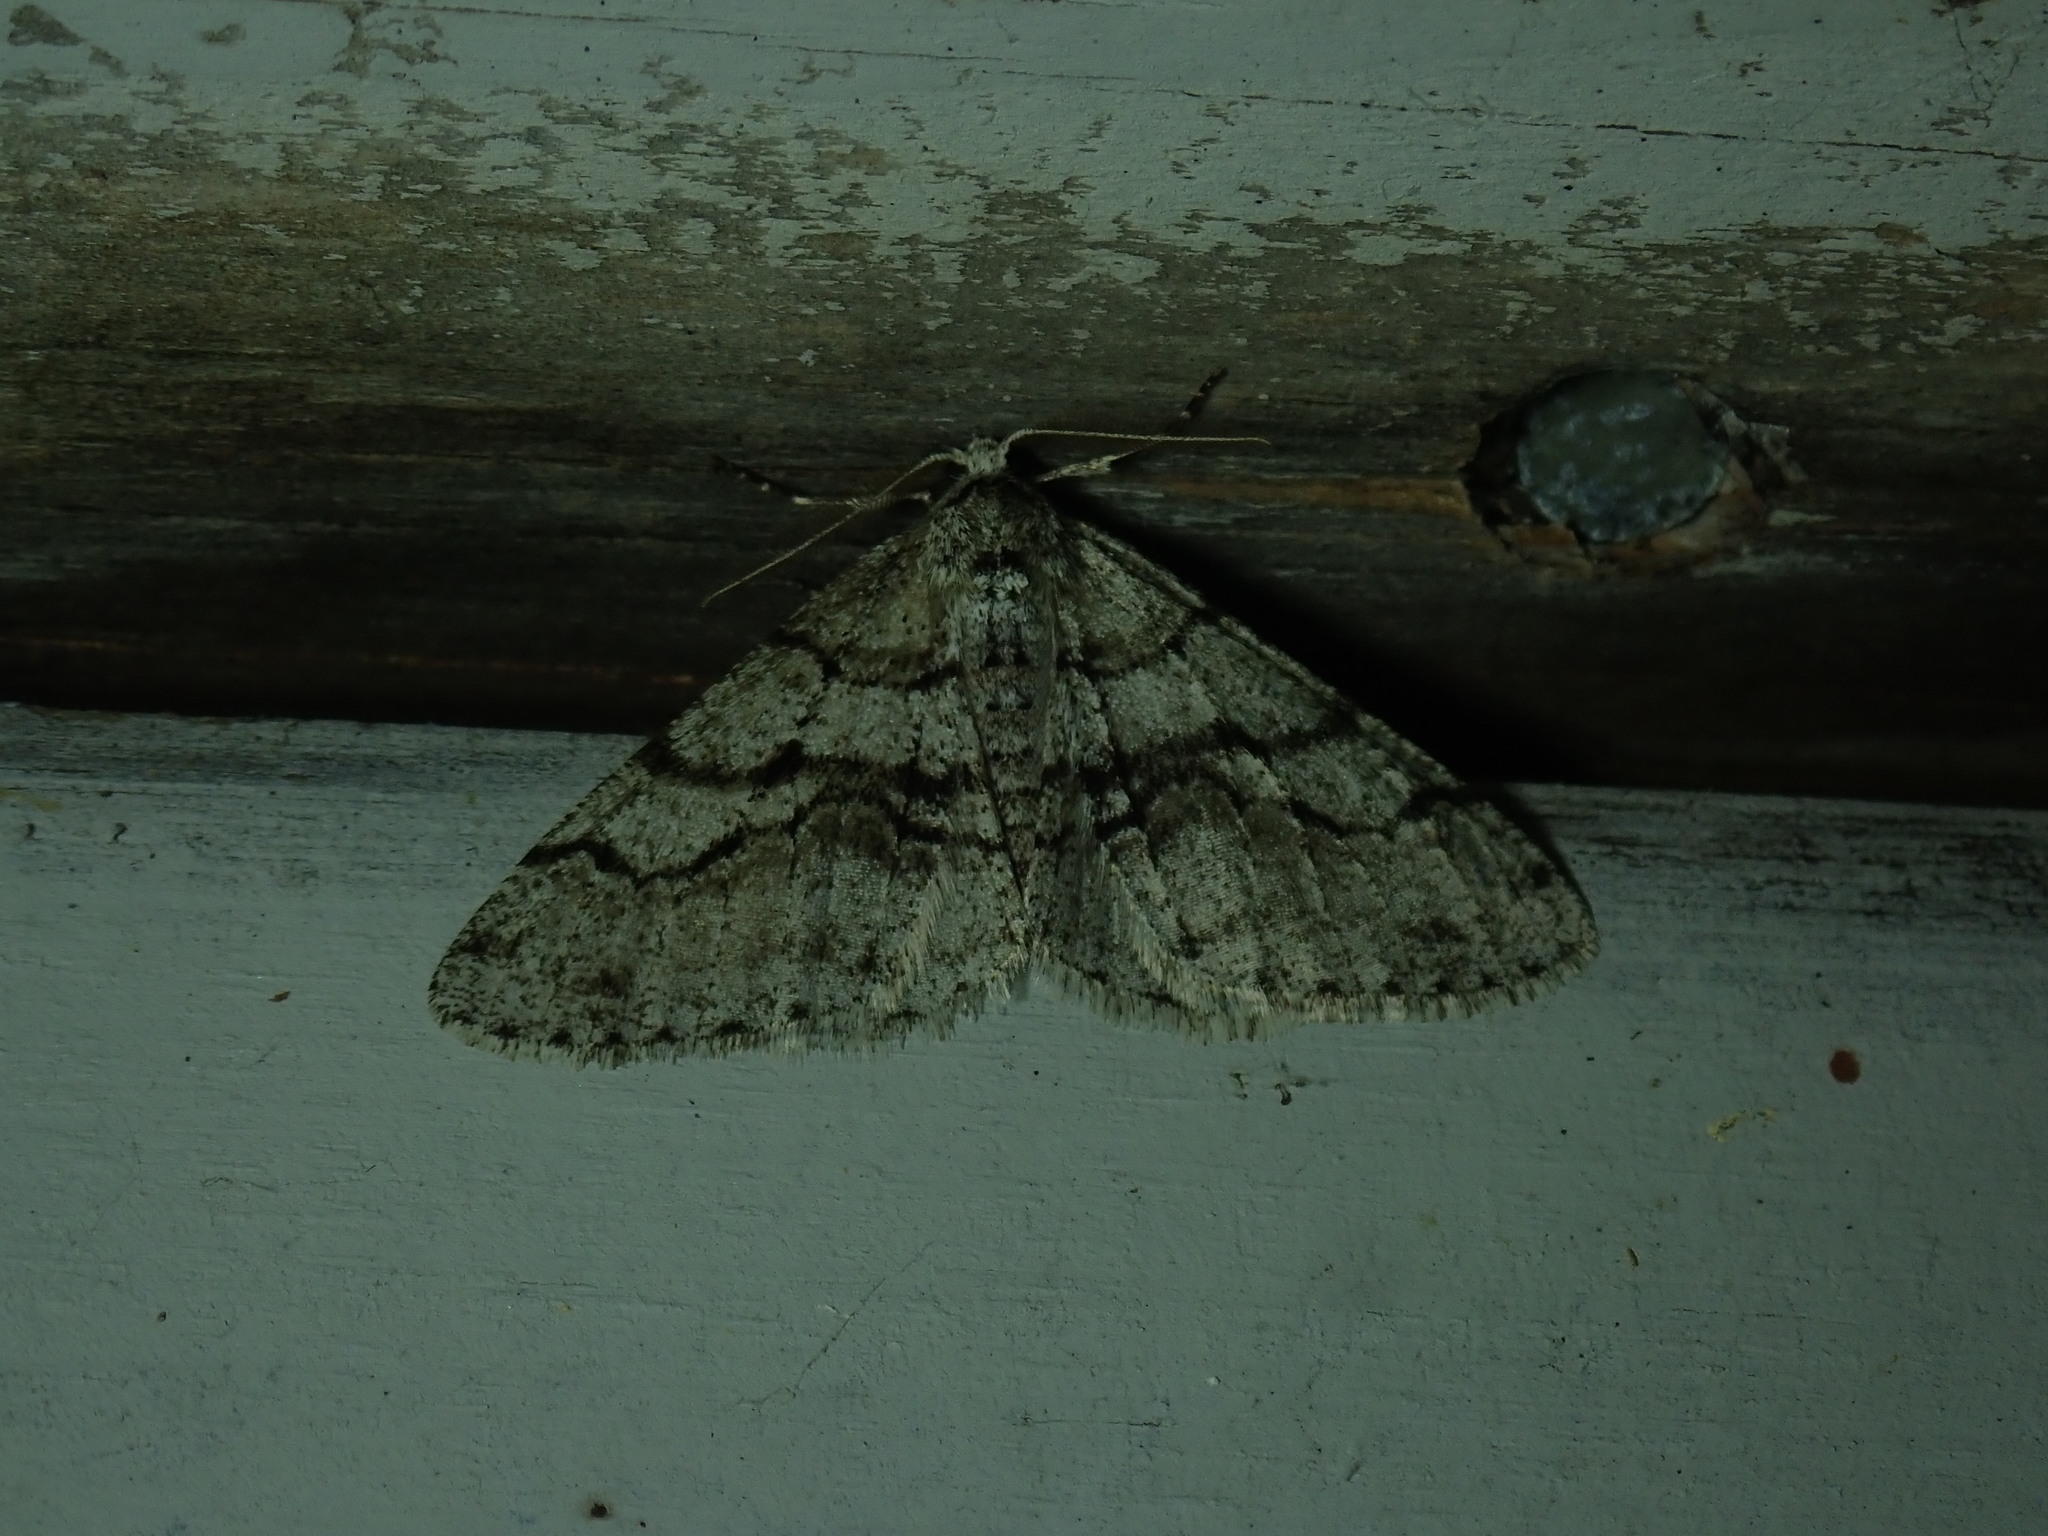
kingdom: Animalia
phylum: Arthropoda
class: Insecta
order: Lepidoptera
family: Geometridae
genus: Phigalia
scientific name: Phigalia titea
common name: Spiny looper
